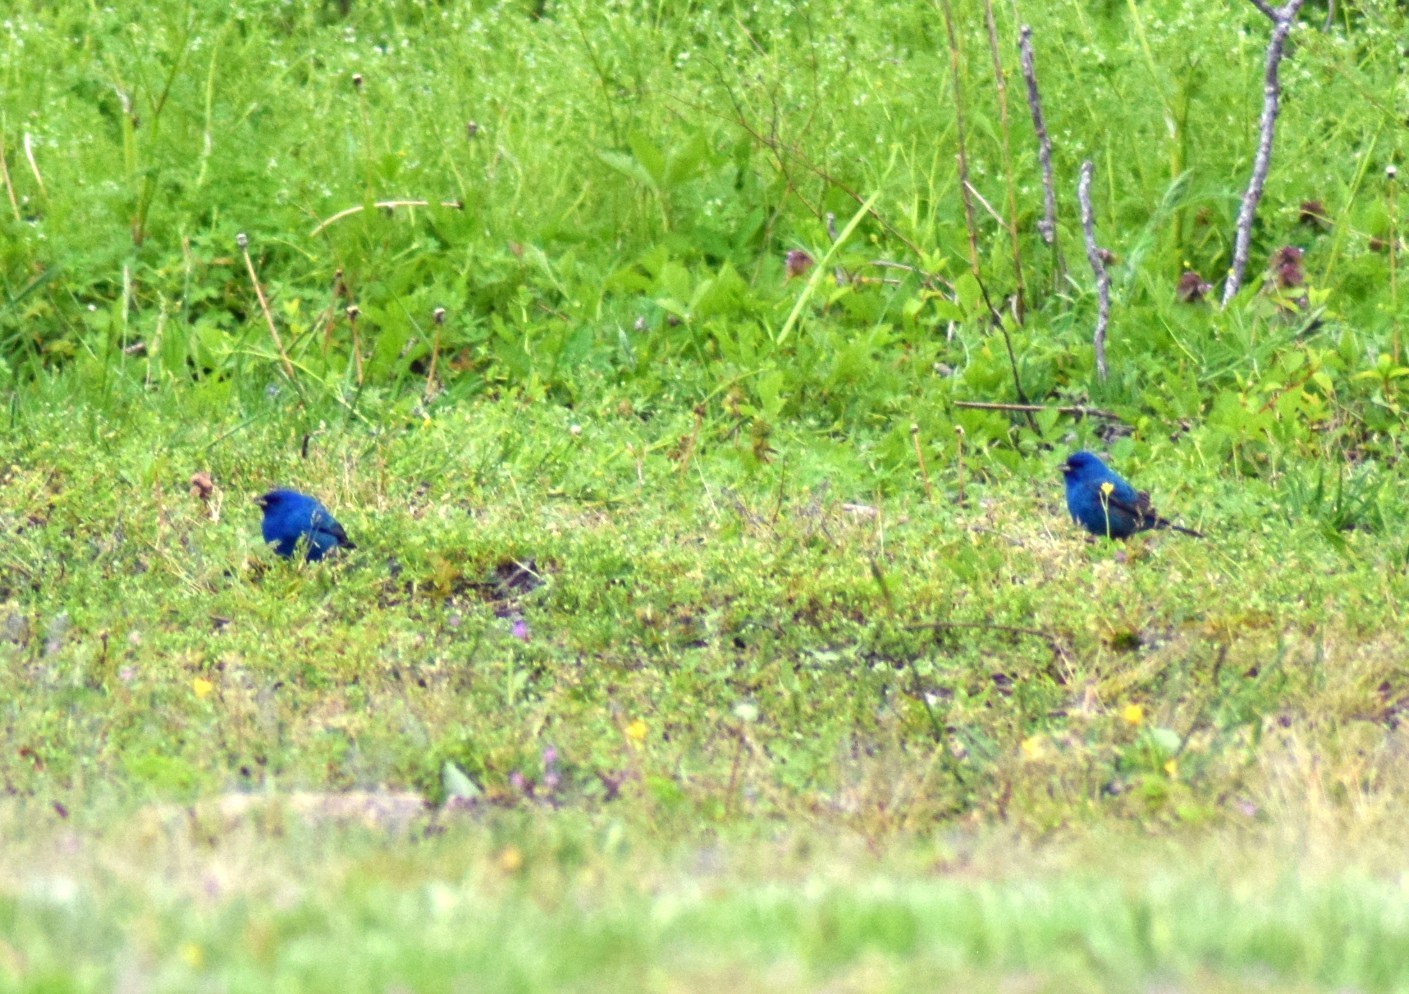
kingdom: Animalia
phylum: Chordata
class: Aves
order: Passeriformes
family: Cardinalidae
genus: Passerina
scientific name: Passerina cyanea
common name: Indigo bunting
